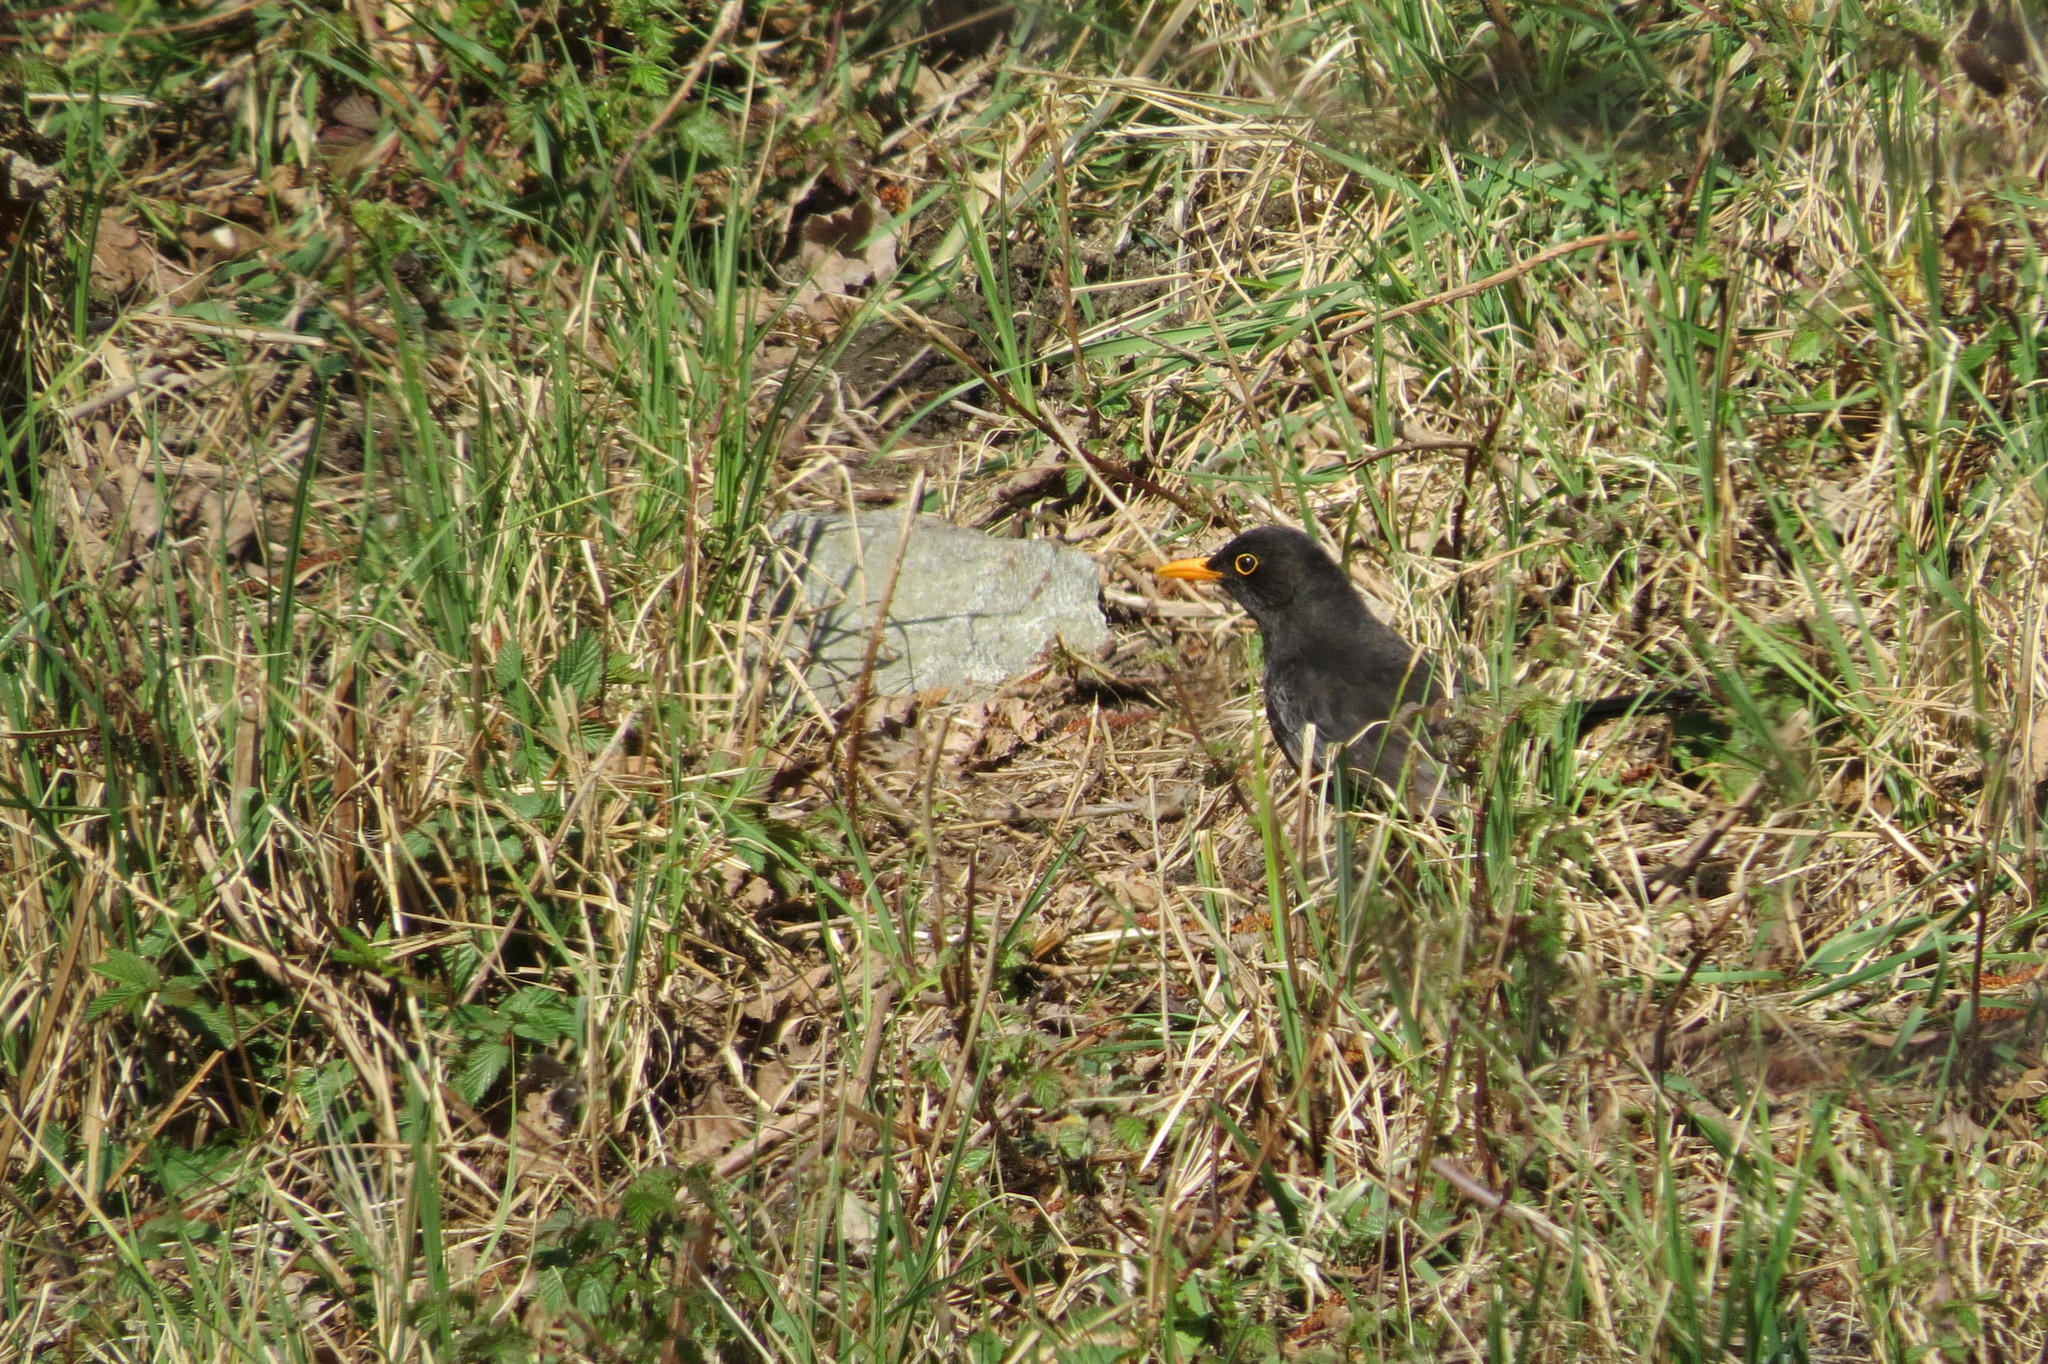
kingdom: Animalia
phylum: Chordata
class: Aves
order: Passeriformes
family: Turdidae
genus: Turdus
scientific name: Turdus merula
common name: Common blackbird
